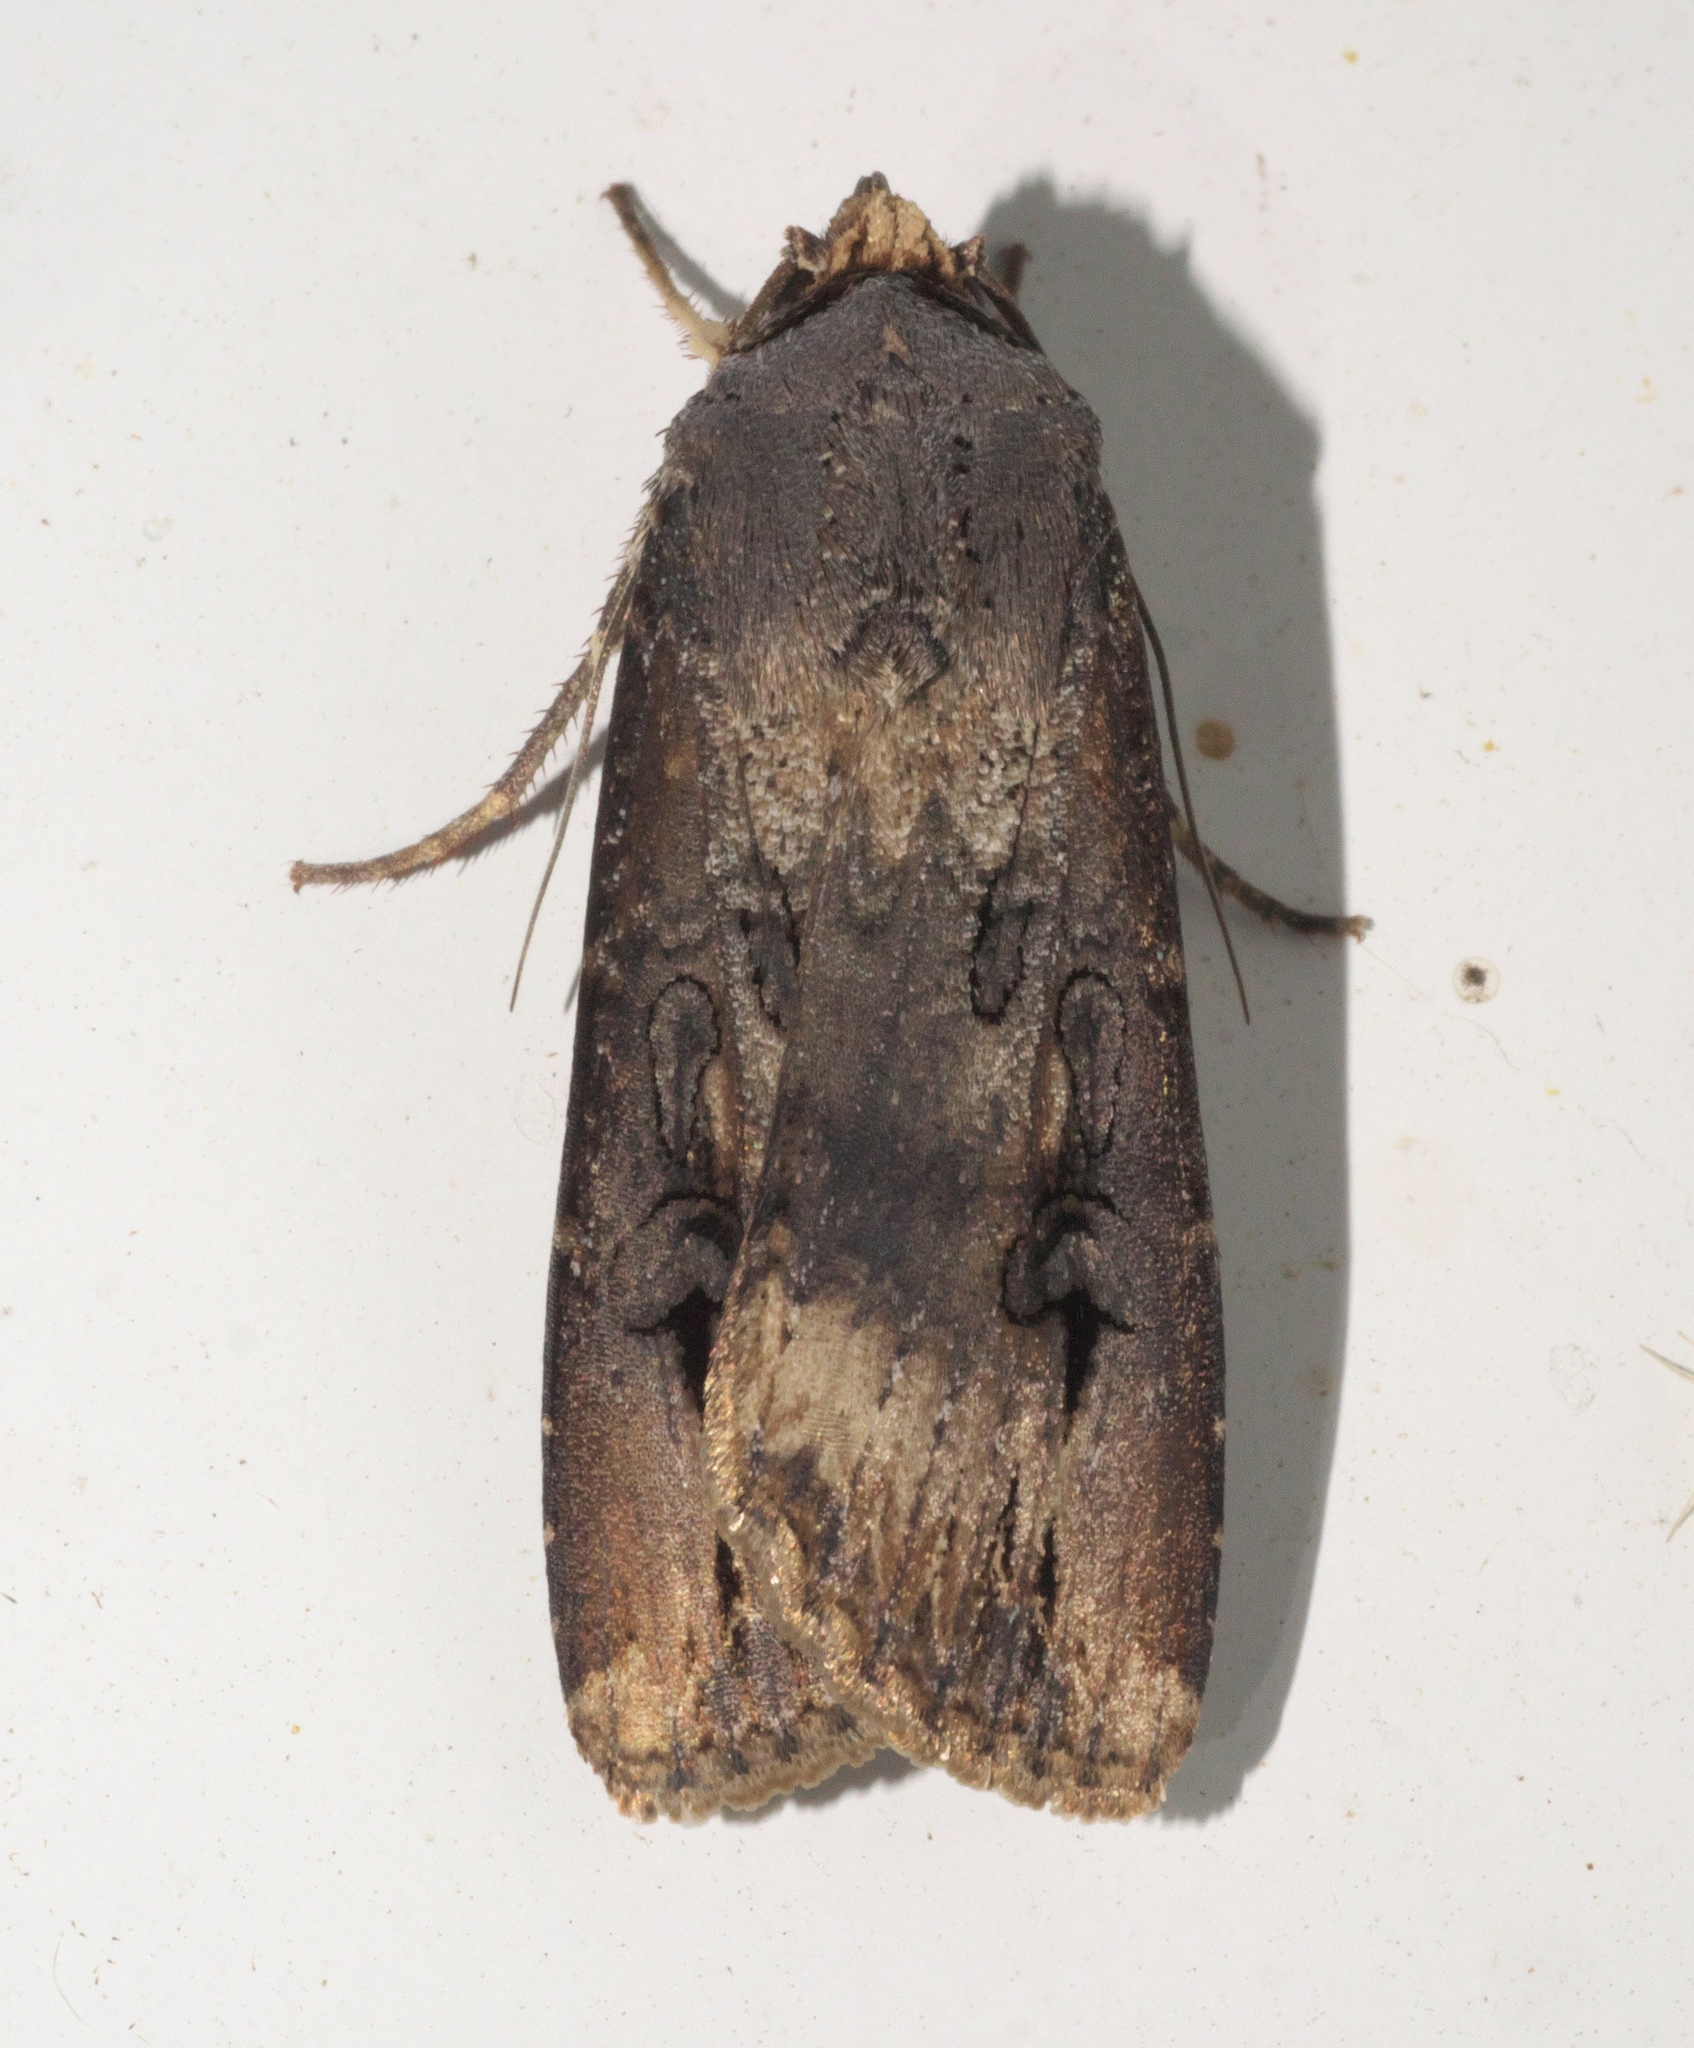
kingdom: Animalia
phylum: Arthropoda
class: Insecta
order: Lepidoptera
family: Noctuidae
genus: Agrotis
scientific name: Agrotis ipsilon
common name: Dark sword-grass
